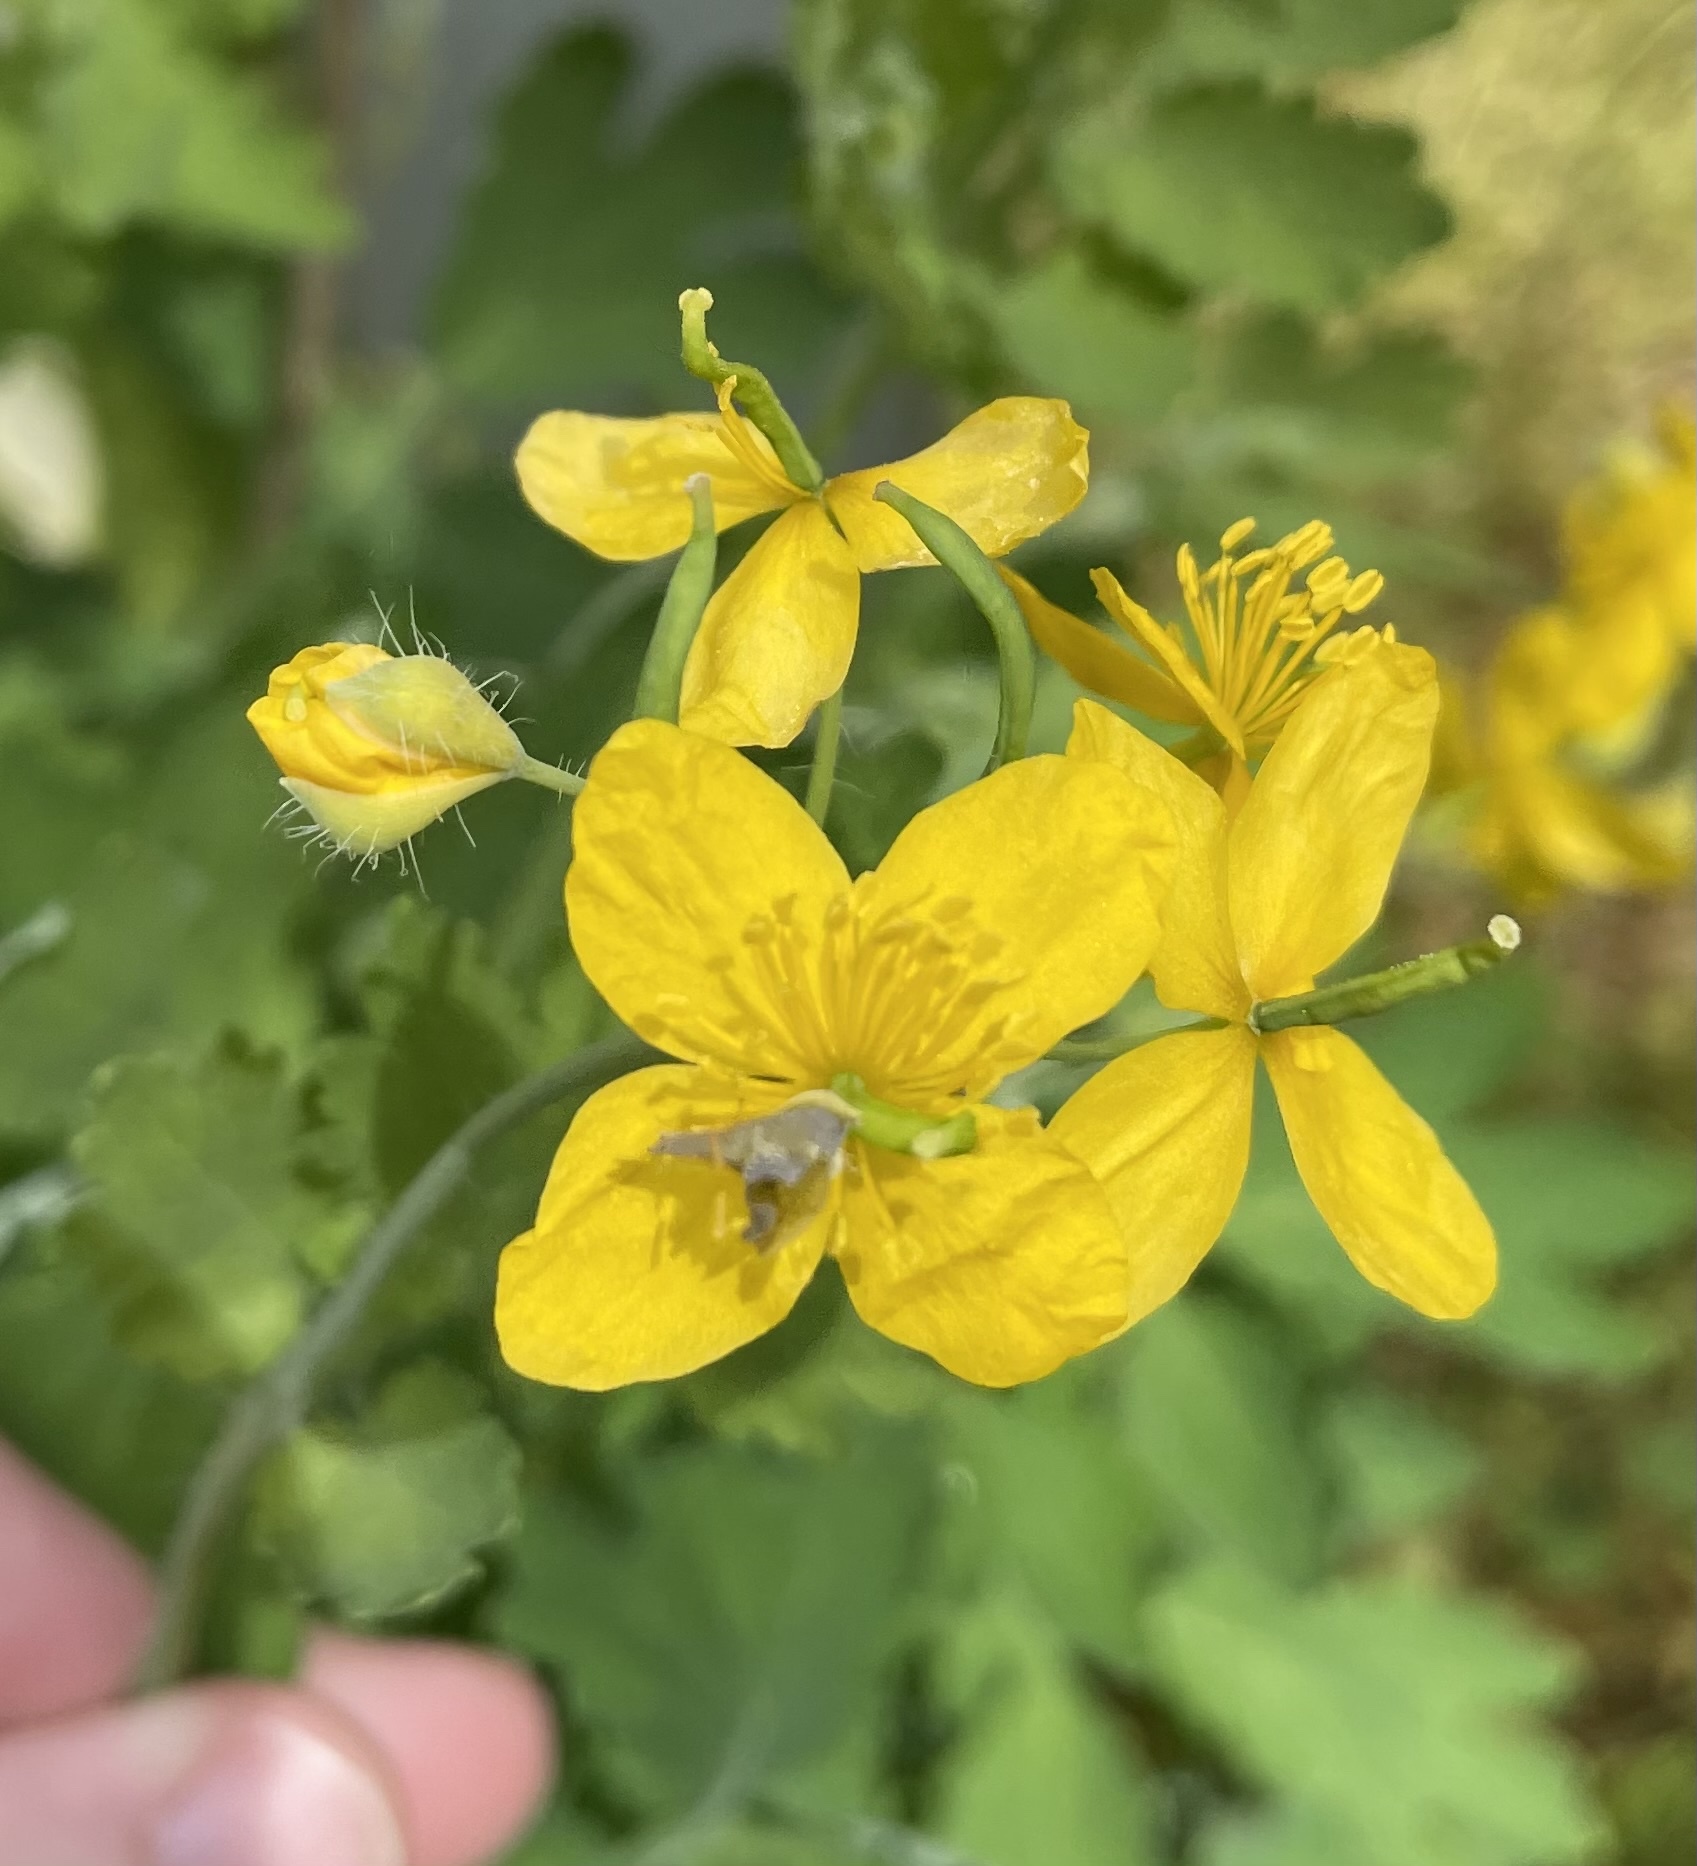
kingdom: Plantae
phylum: Tracheophyta
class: Magnoliopsida
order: Ranunculales
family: Papaveraceae
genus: Chelidonium
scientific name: Chelidonium majus
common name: Greater celandine
